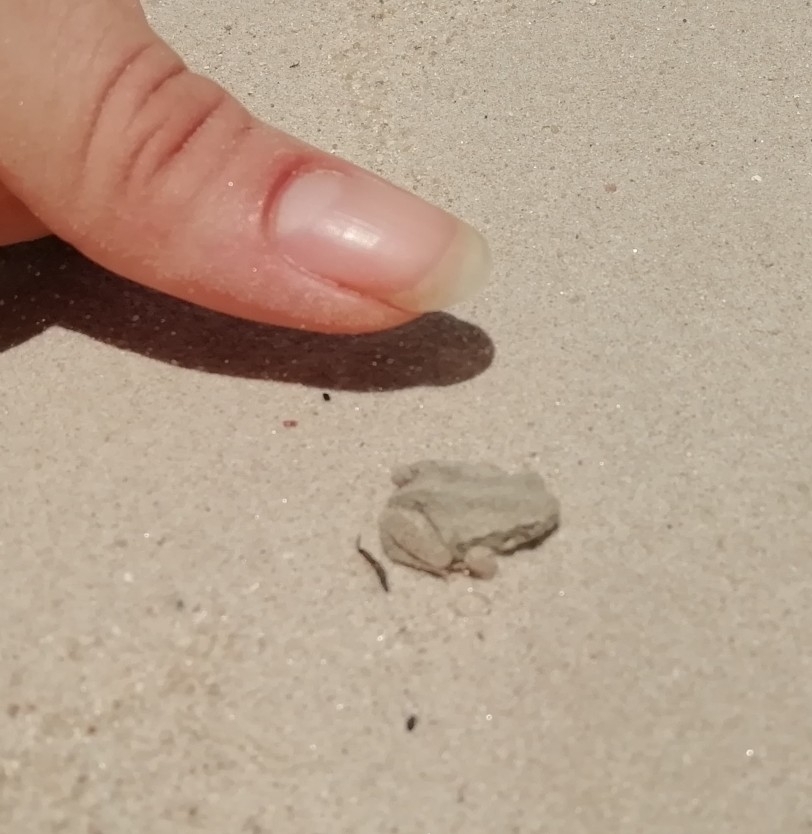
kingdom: Animalia
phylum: Chordata
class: Amphibia
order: Anura
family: Bufonidae
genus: Rhinella
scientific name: Rhinella arenarum
